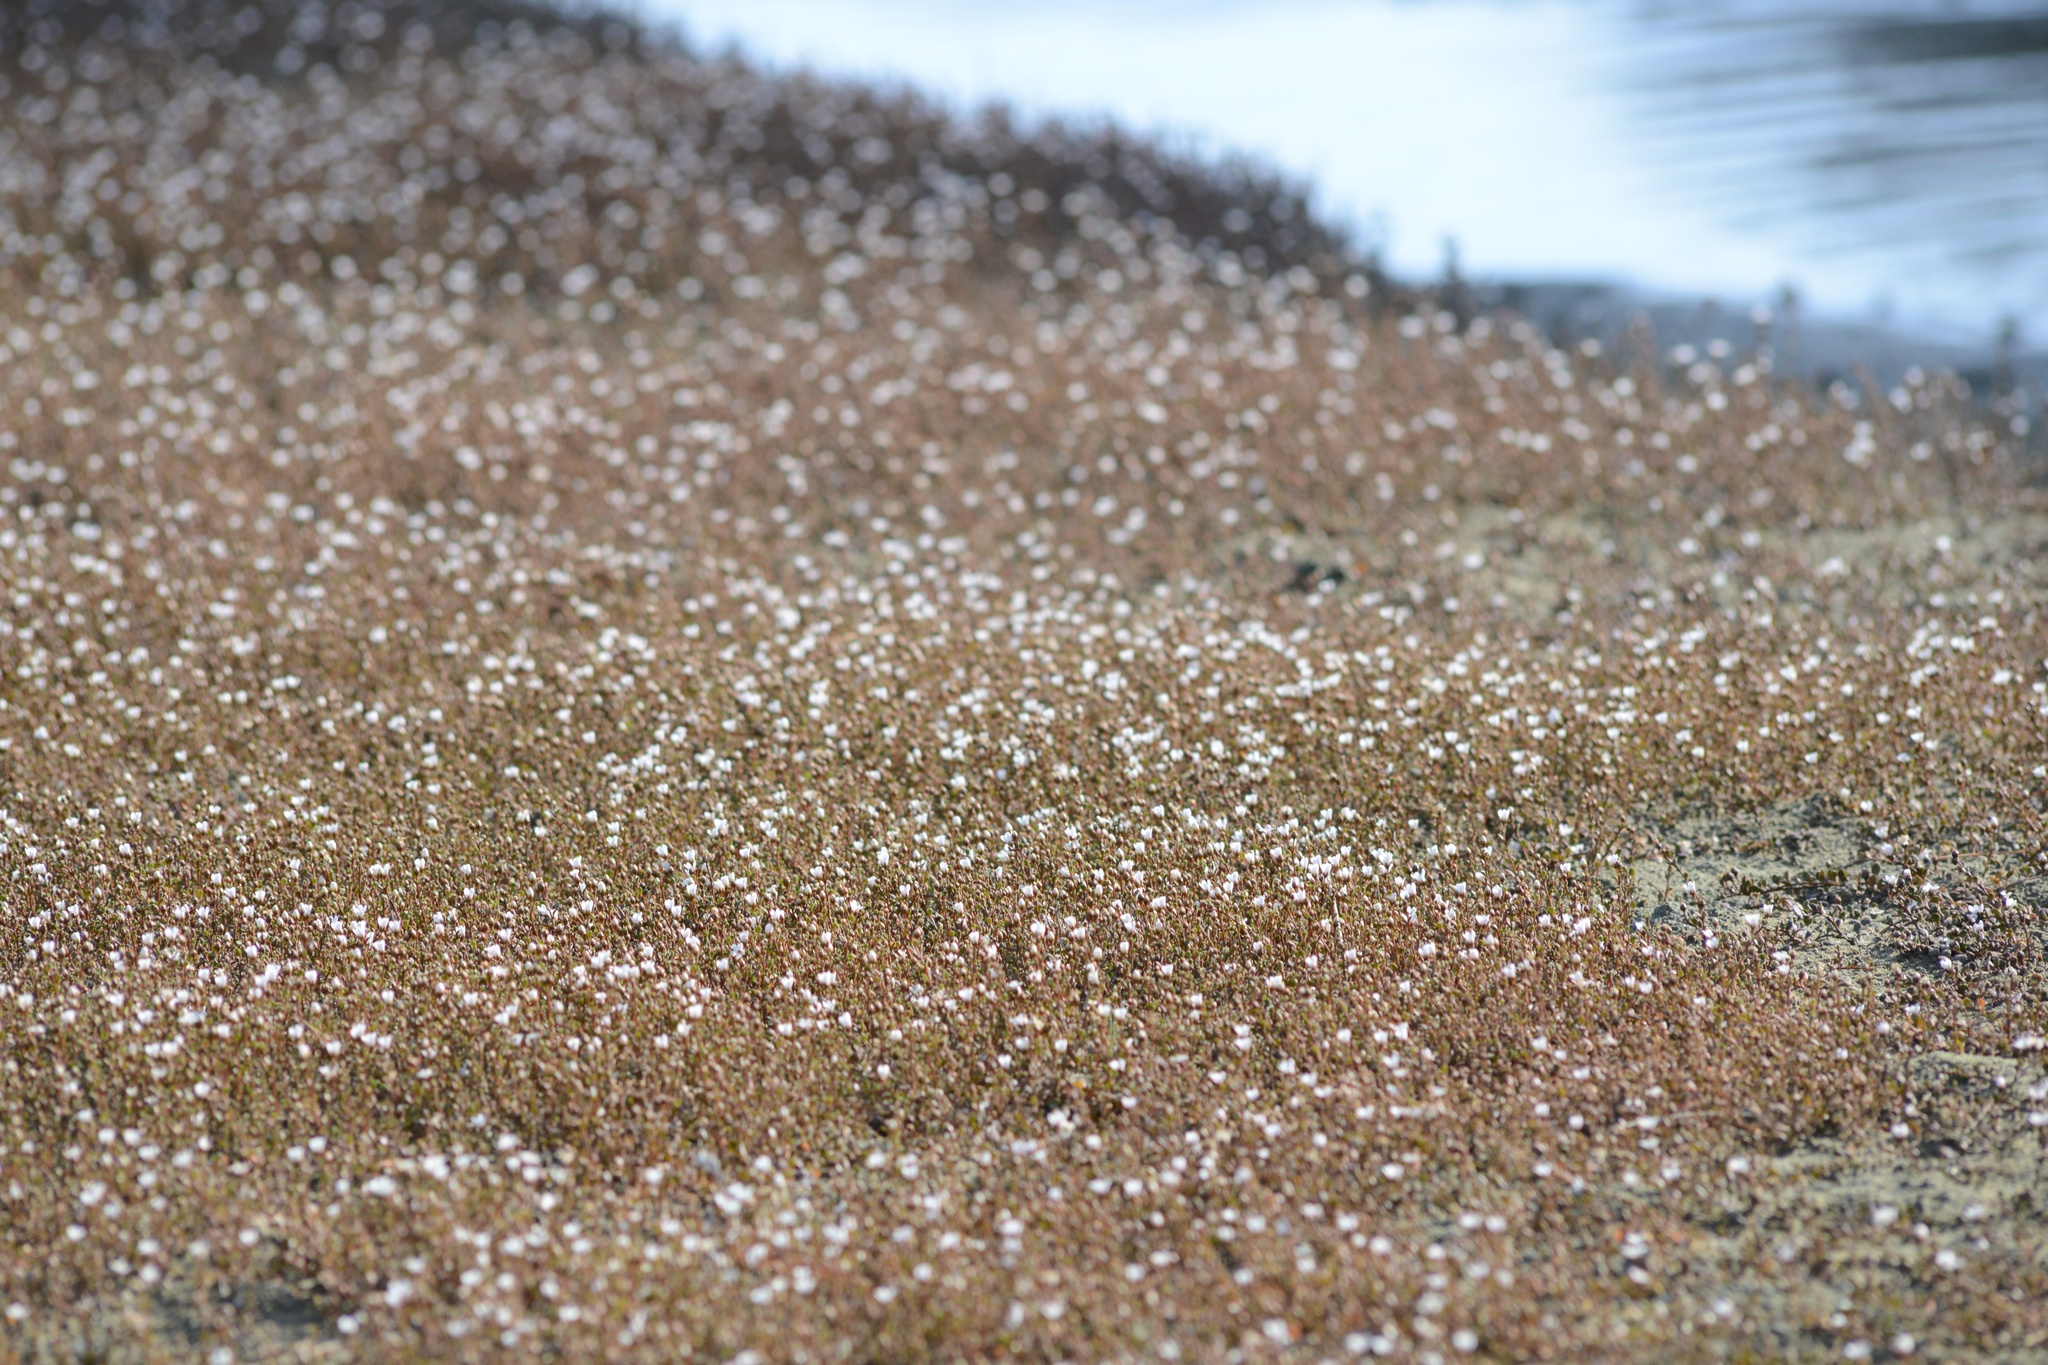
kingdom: Plantae
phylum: Tracheophyta
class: Magnoliopsida
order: Ericales
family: Primulaceae
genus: Samolus
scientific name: Samolus repens
